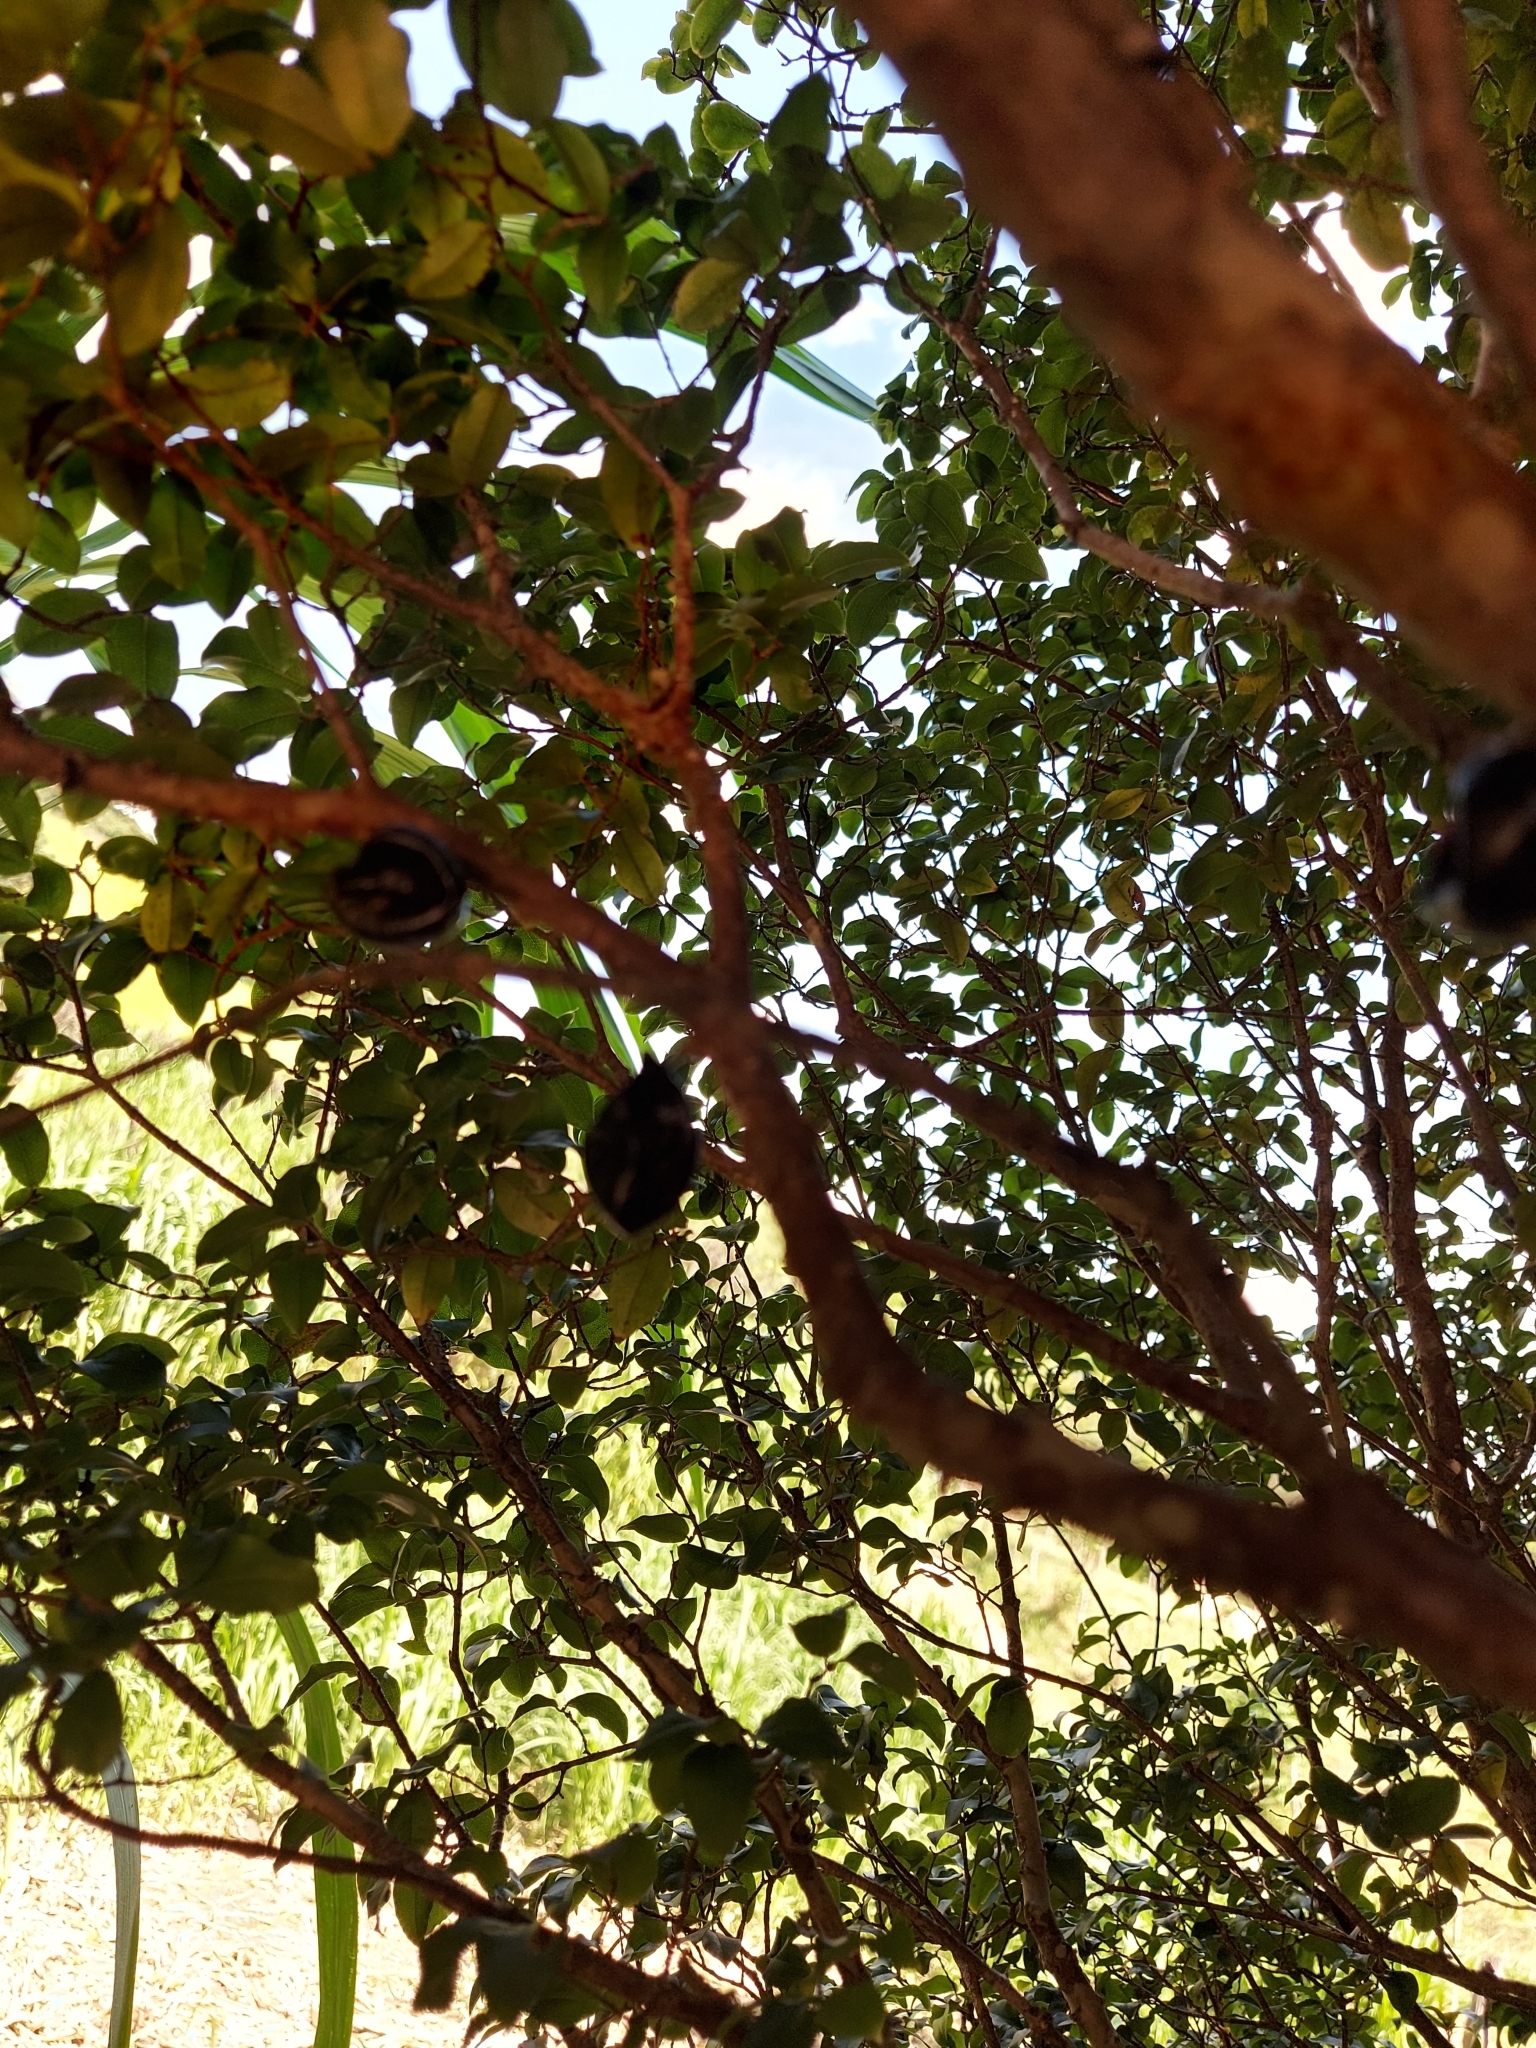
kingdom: Plantae
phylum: Tracheophyta
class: Magnoliopsida
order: Myrtales
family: Myrtaceae
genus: Plinia
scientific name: Plinia cauliflora
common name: Brazilian grapetree
